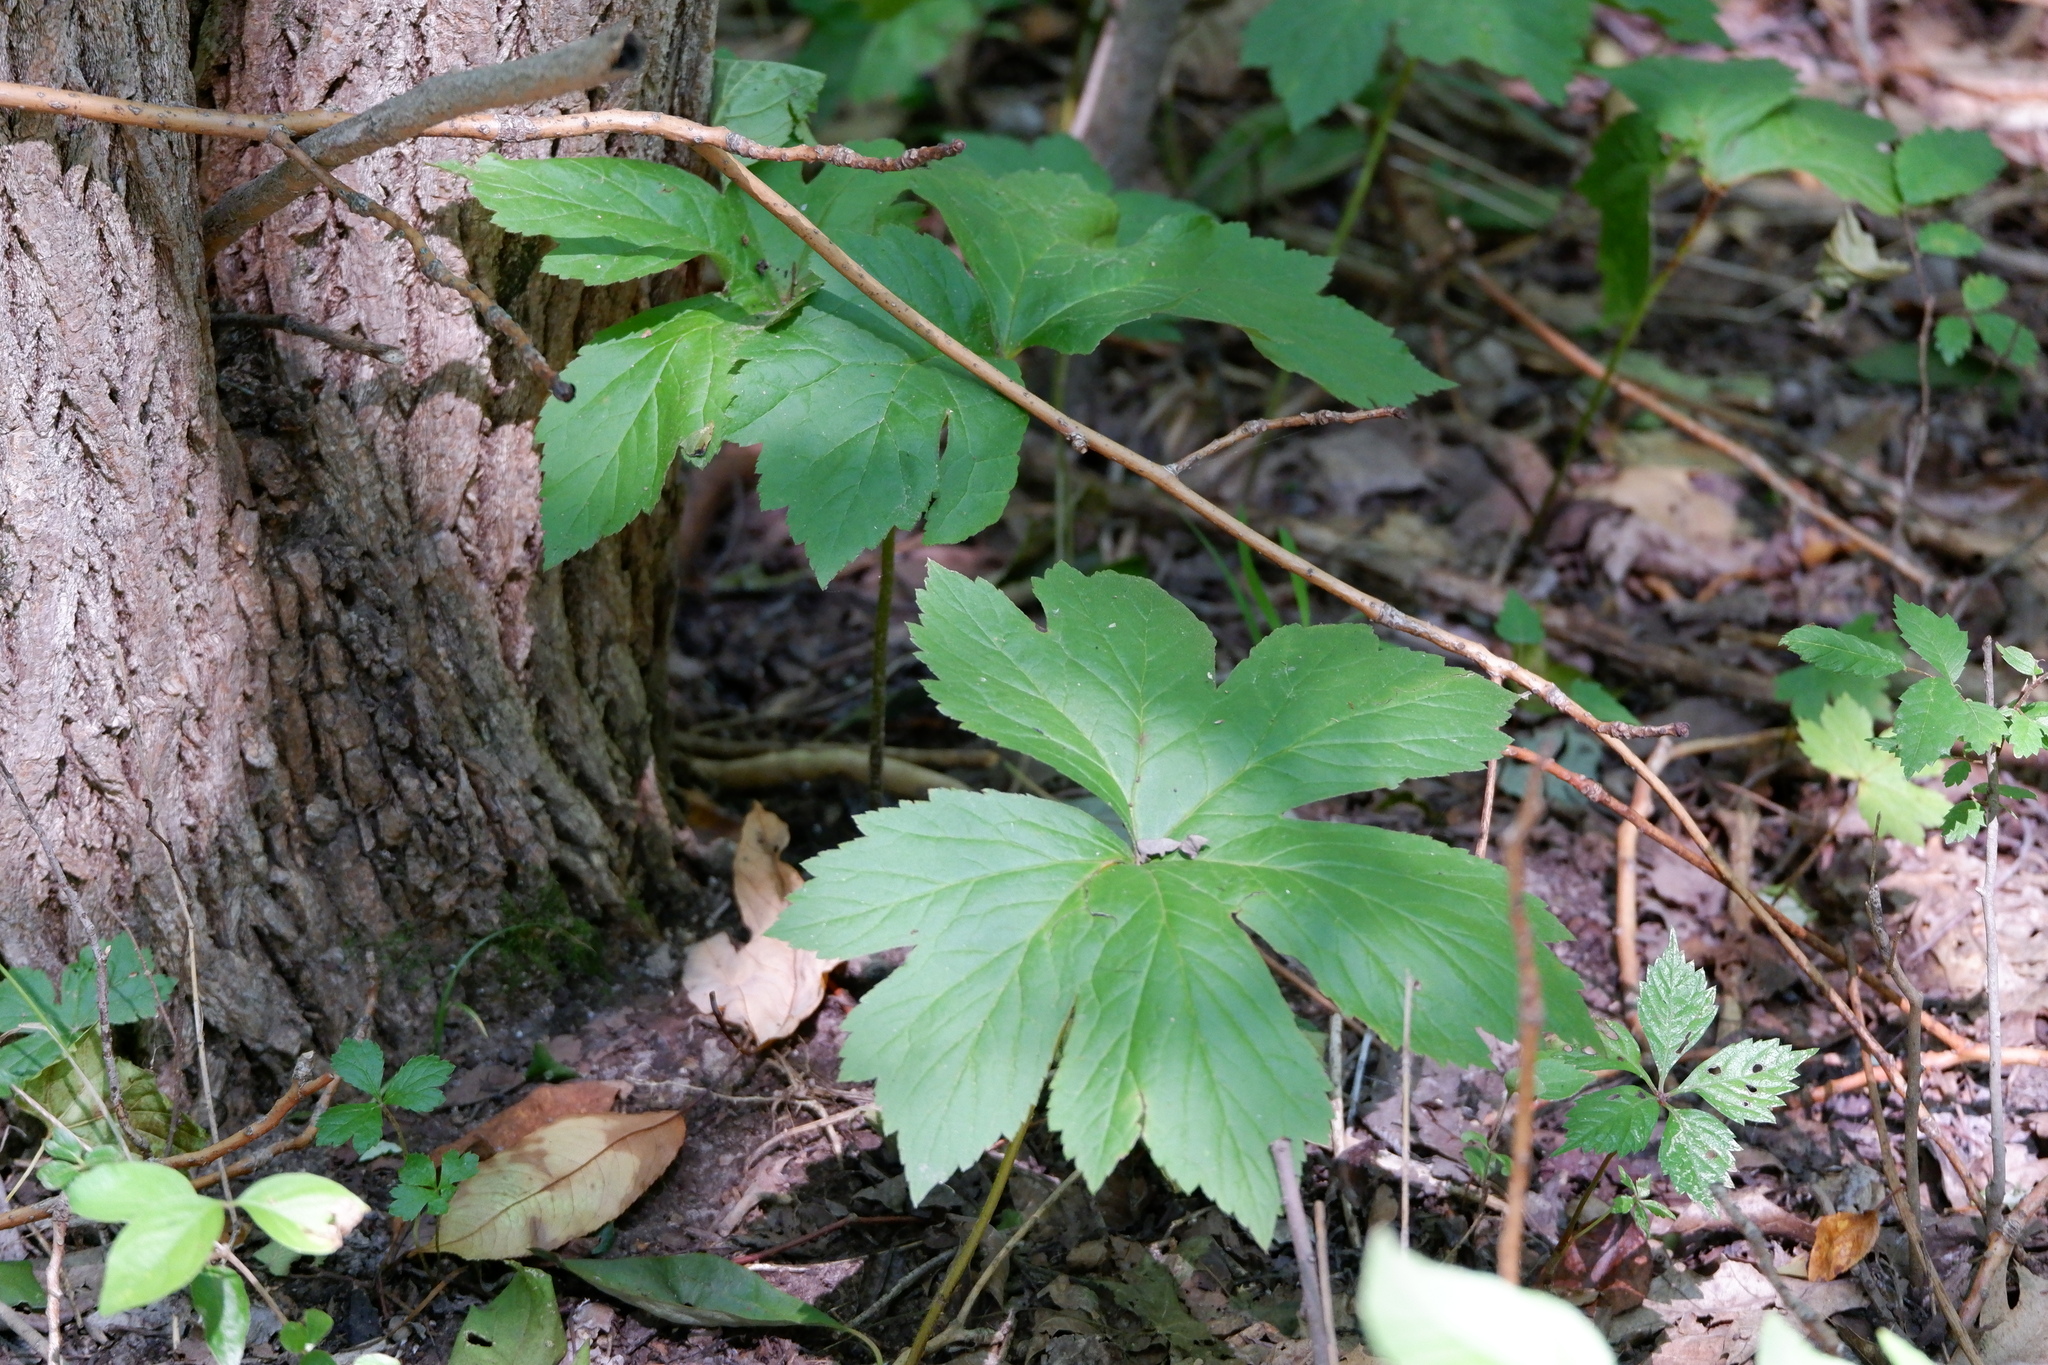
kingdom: Plantae
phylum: Tracheophyta
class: Magnoliopsida
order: Ranunculales
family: Ranunculaceae
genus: Hydrastis
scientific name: Hydrastis canadensis
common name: Goldenseal
